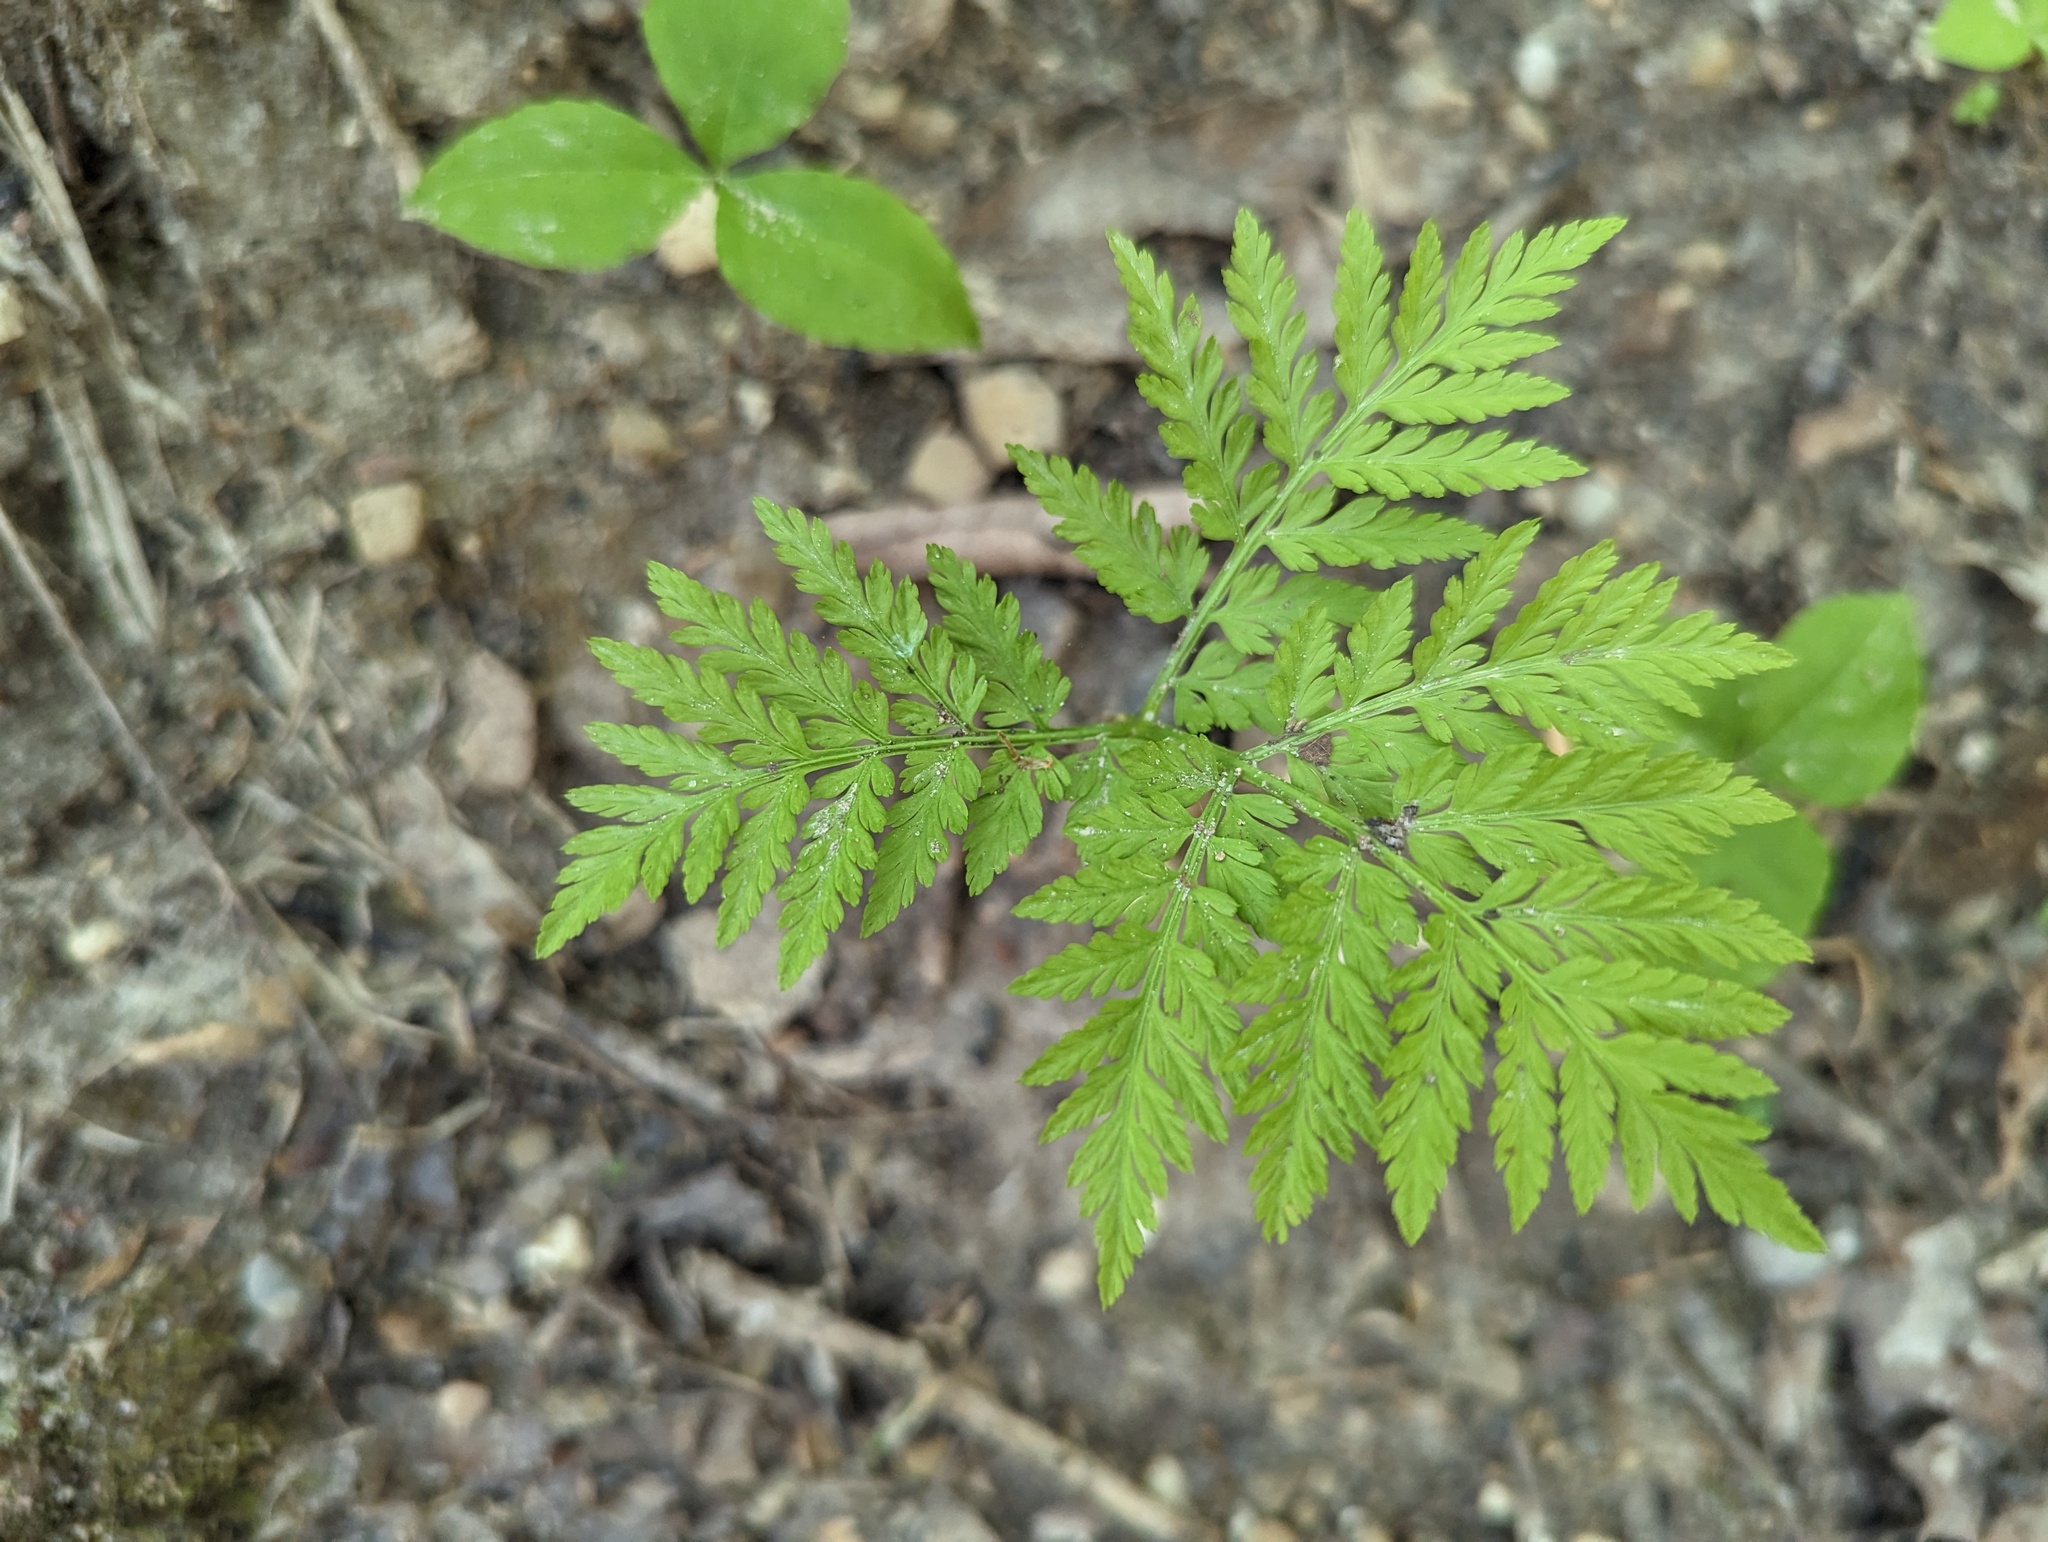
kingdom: Plantae
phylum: Tracheophyta
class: Polypodiopsida
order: Ophioglossales
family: Ophioglossaceae
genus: Botrypus
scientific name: Botrypus virginianus
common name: Common grapefern
